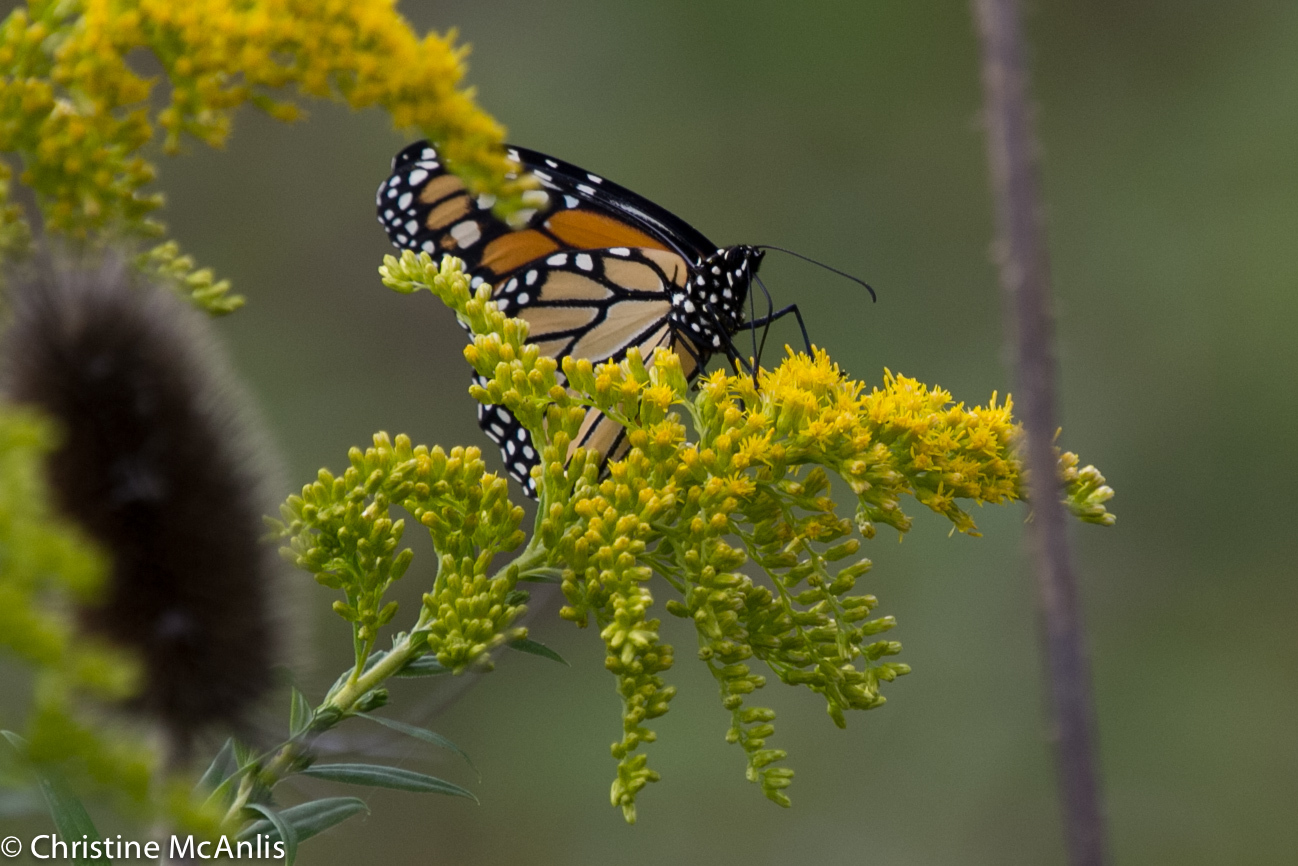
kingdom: Animalia
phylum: Arthropoda
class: Insecta
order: Lepidoptera
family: Nymphalidae
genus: Danaus
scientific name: Danaus plexippus
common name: Monarch
